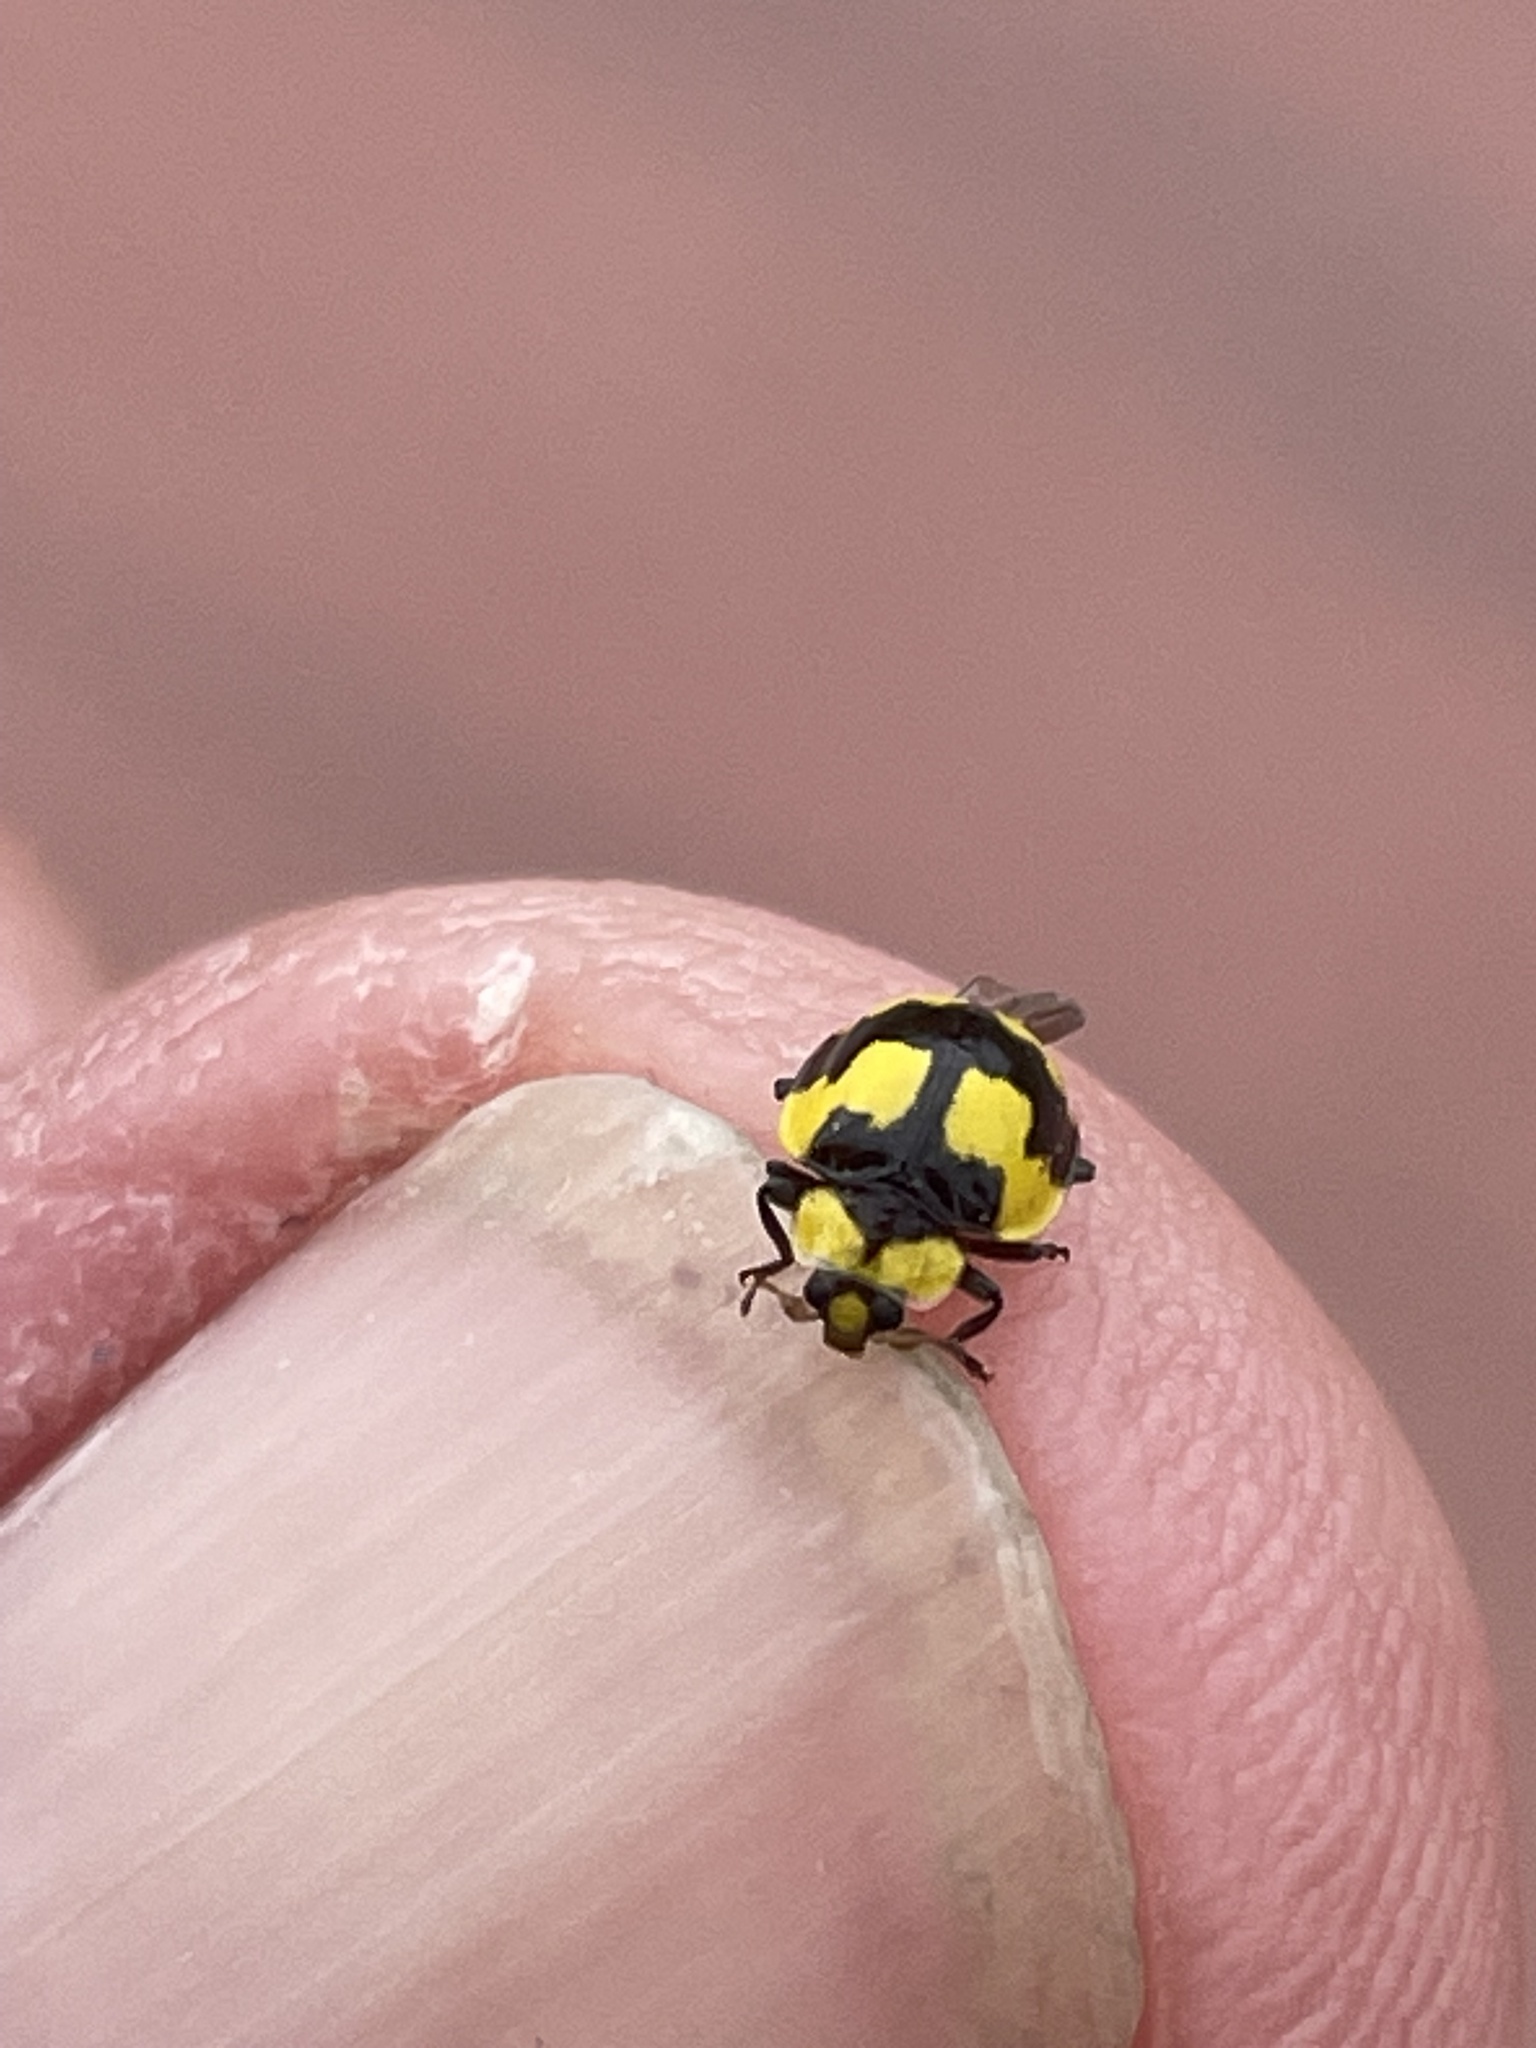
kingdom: Animalia
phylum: Arthropoda
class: Insecta
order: Coleoptera
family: Coccinellidae
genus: Illeis
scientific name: Illeis galbula
